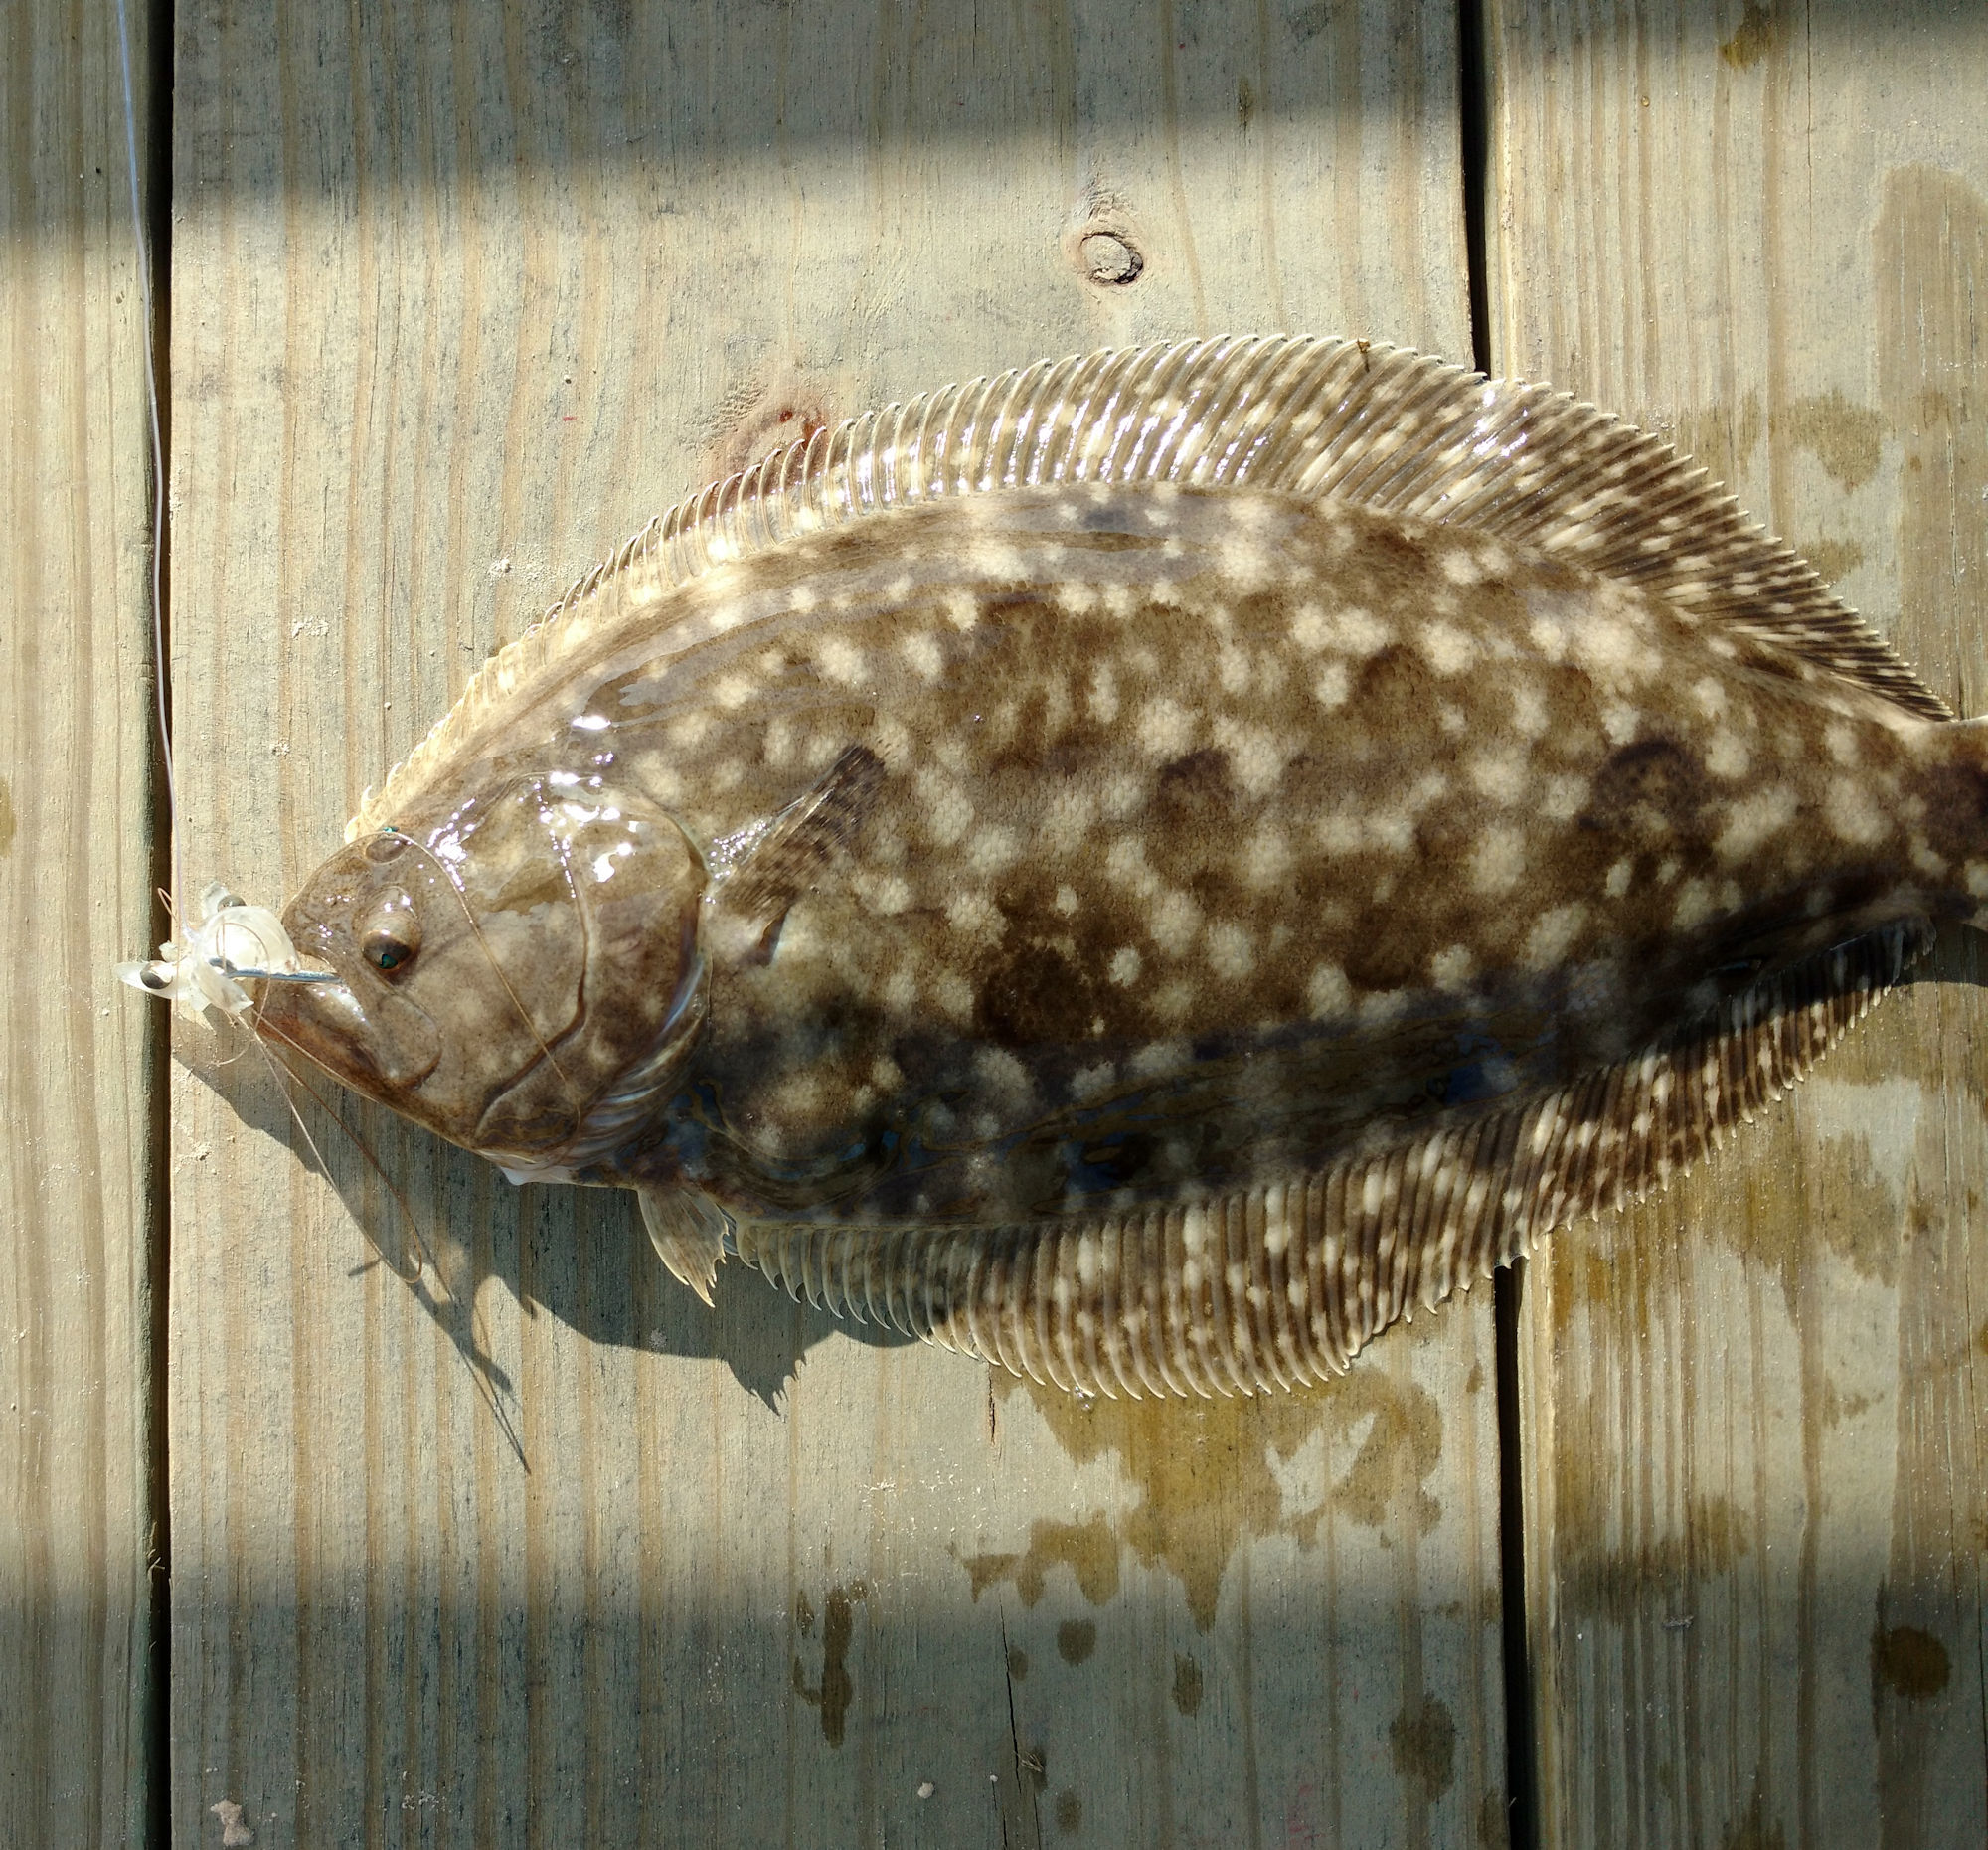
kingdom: Animalia
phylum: Chordata
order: Pleuronectiformes
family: Paralichthyidae
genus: Paralichthys
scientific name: Paralichthys lethostigma
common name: Southern flounder
